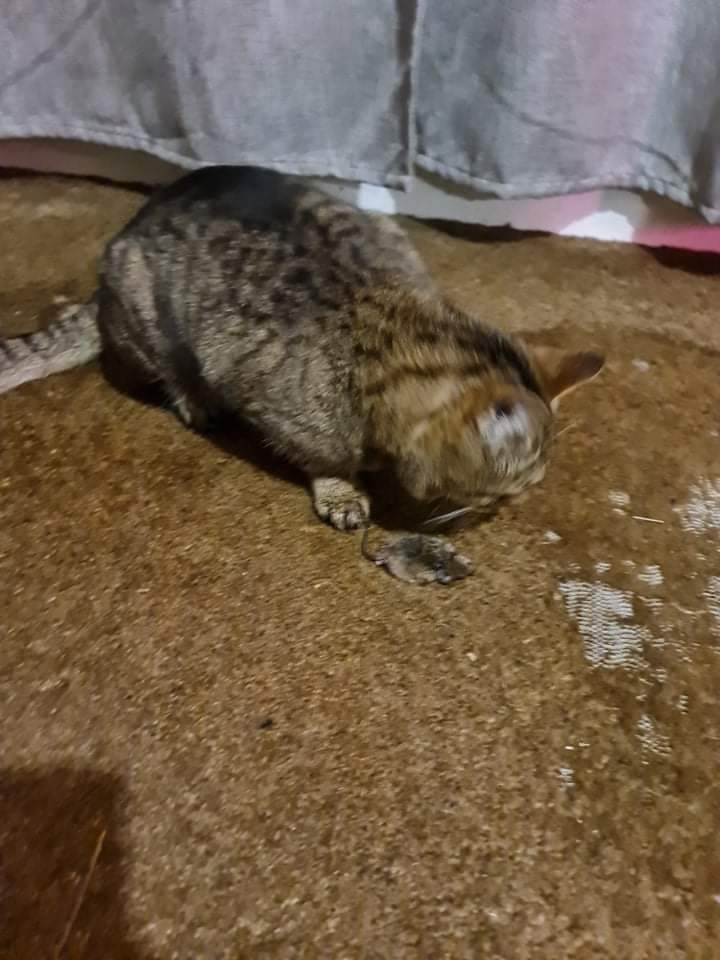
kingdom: Animalia
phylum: Chordata
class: Mammalia
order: Rodentia
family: Muridae
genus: Mus
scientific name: Mus musculus
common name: House mouse
